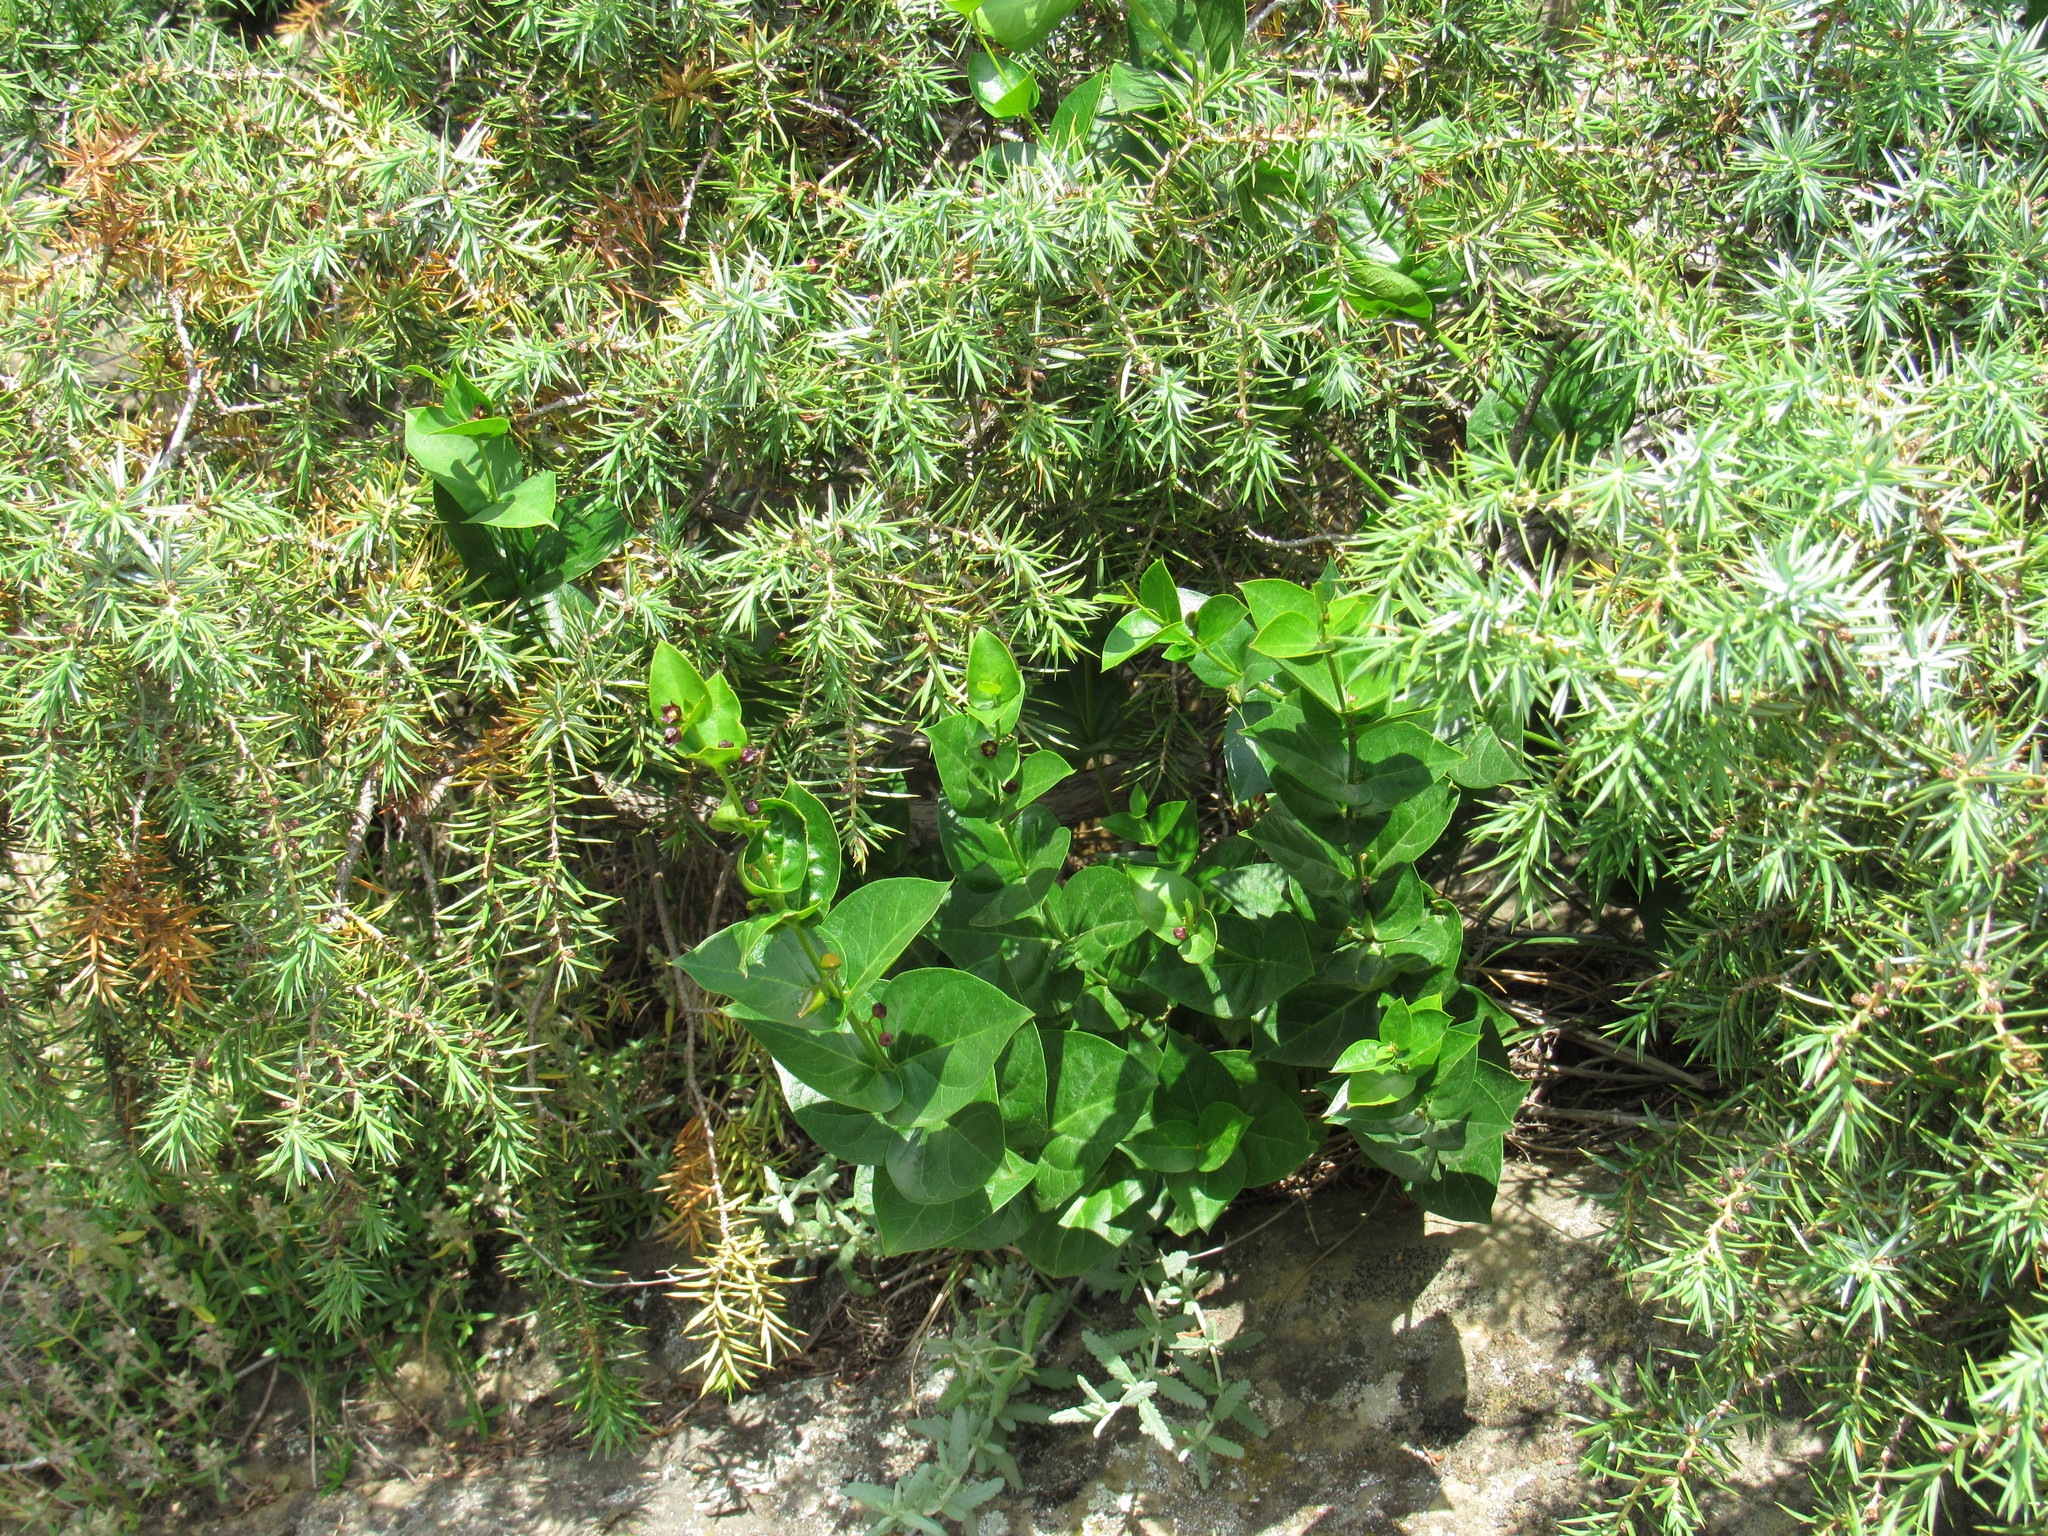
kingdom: Plantae
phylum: Tracheophyta
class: Magnoliopsida
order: Gentianales
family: Apocynaceae
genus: Vincetoxicum
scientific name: Vincetoxicum funebre
